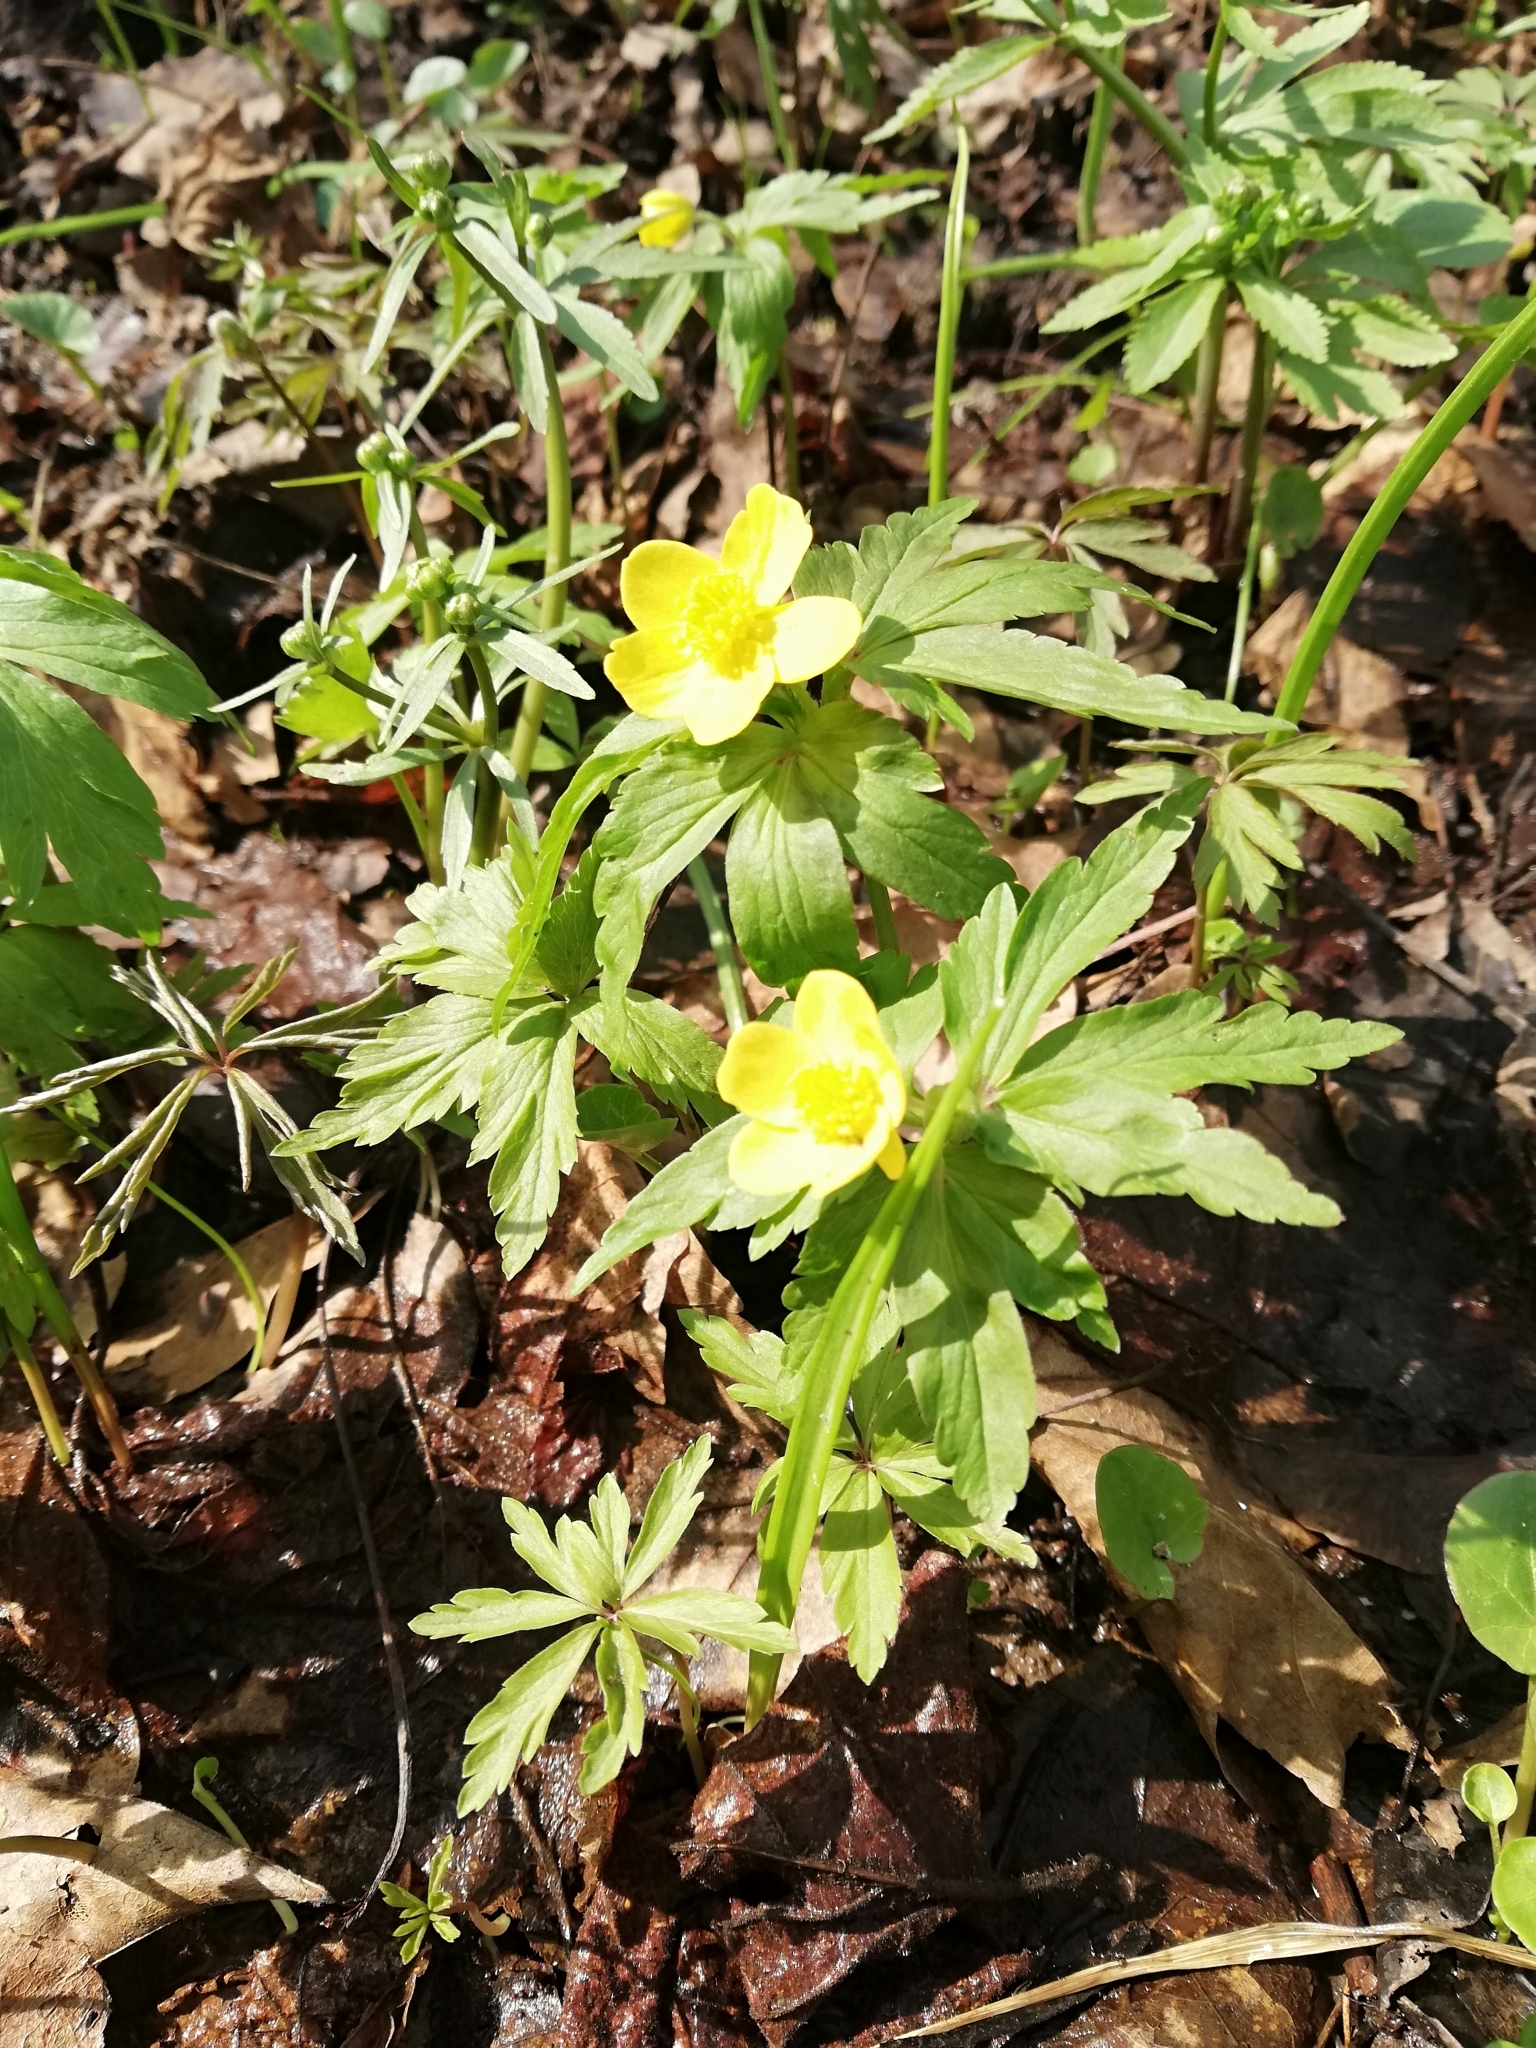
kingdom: Plantae
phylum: Tracheophyta
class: Magnoliopsida
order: Ranunculales
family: Ranunculaceae
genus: Anemone
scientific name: Anemone ranunculoides
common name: Yellow anemone
